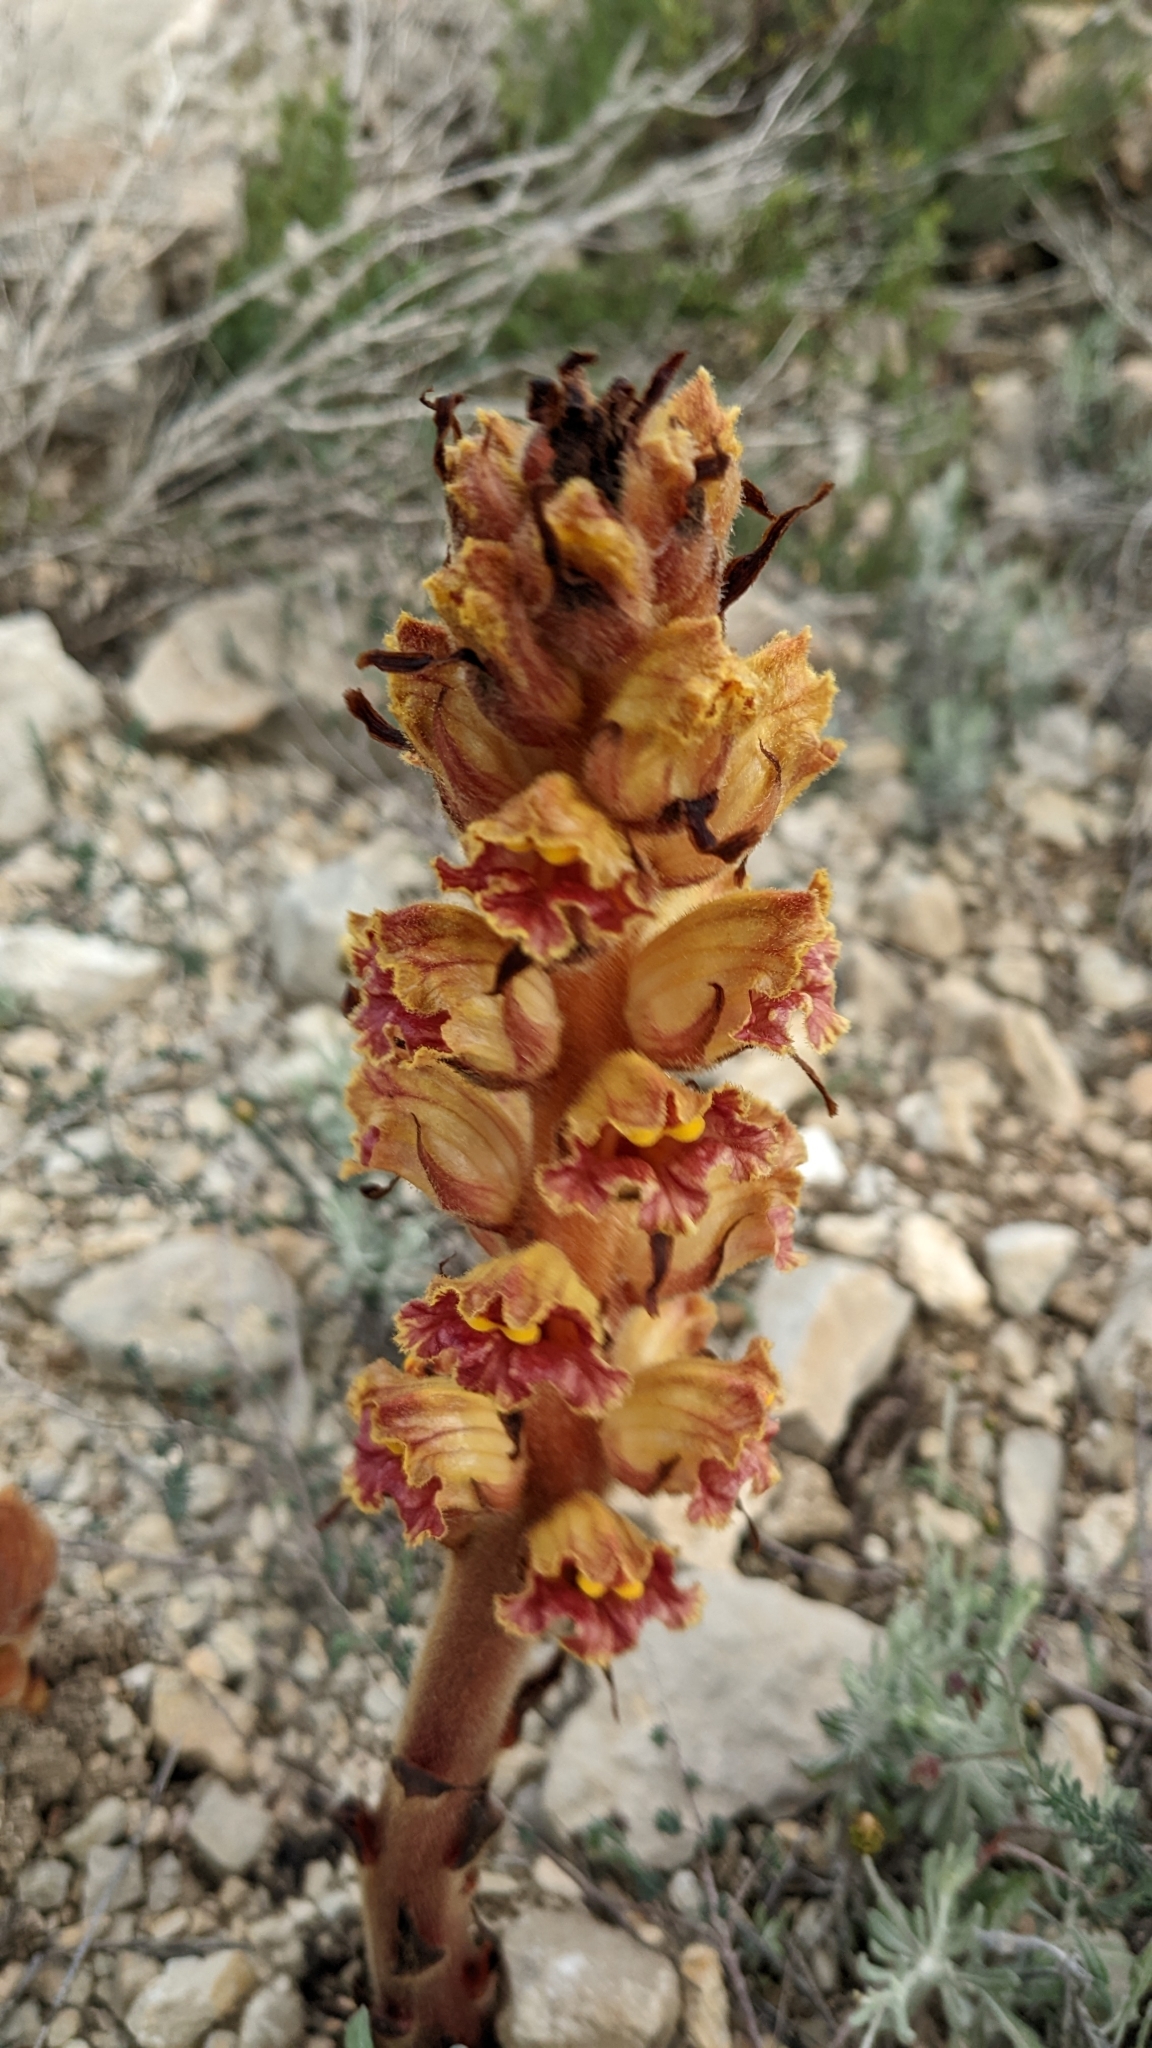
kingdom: Plantae
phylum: Tracheophyta
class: Magnoliopsida
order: Lamiales
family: Orobanchaceae
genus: Orobanche
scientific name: Orobanche gracilis
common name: Slender broomrape
